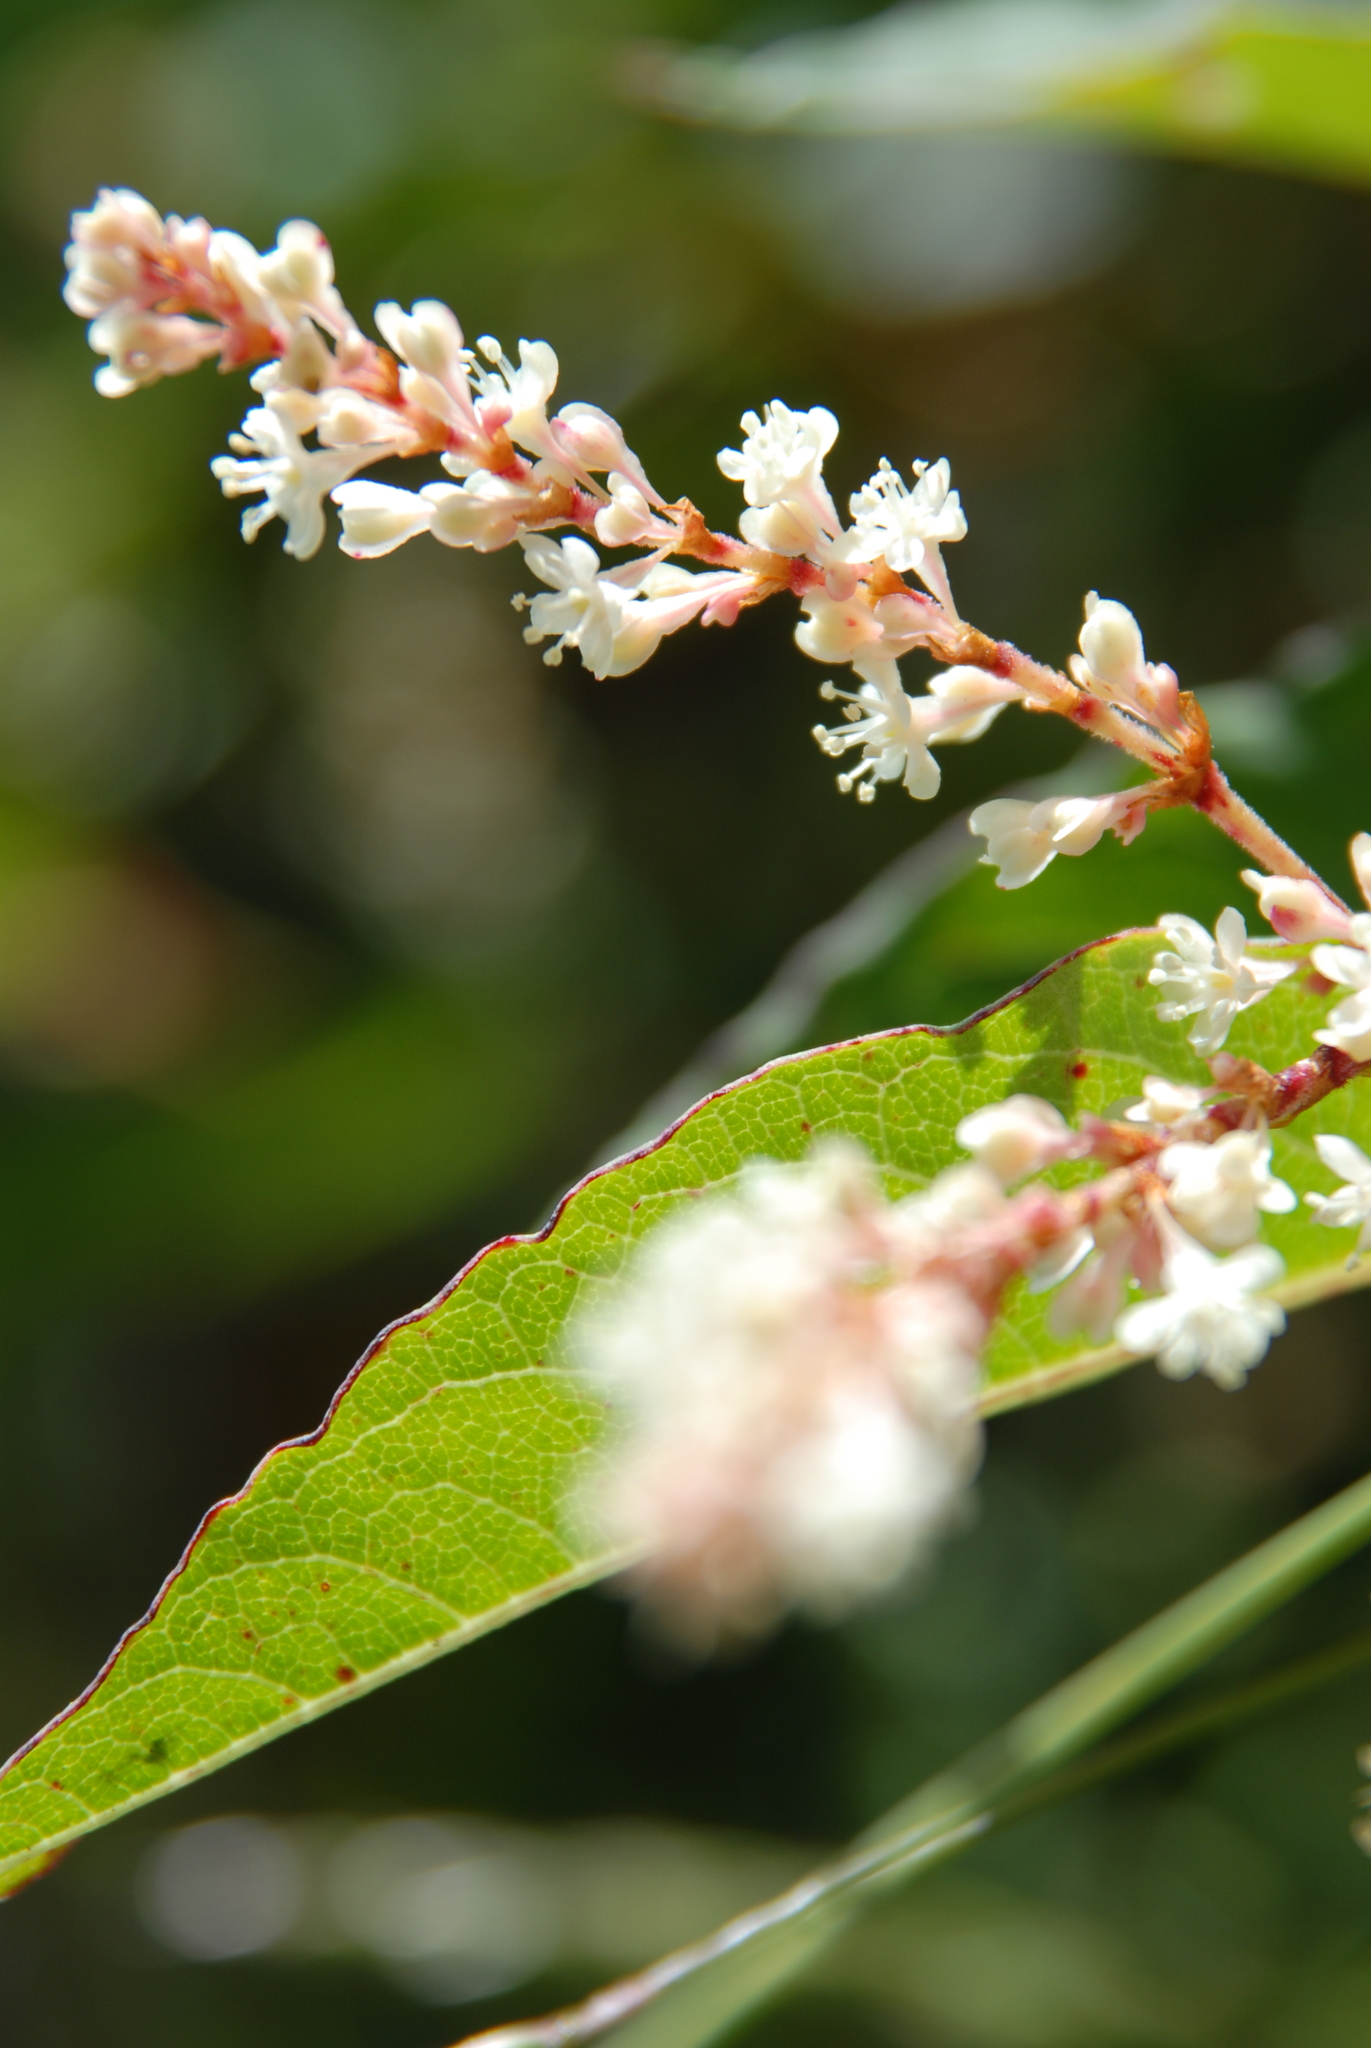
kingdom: Plantae
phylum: Tracheophyta
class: Magnoliopsida
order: Caryophyllales
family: Polygonaceae
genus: Reynoutria
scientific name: Reynoutria japonica
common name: Japanese knotweed
